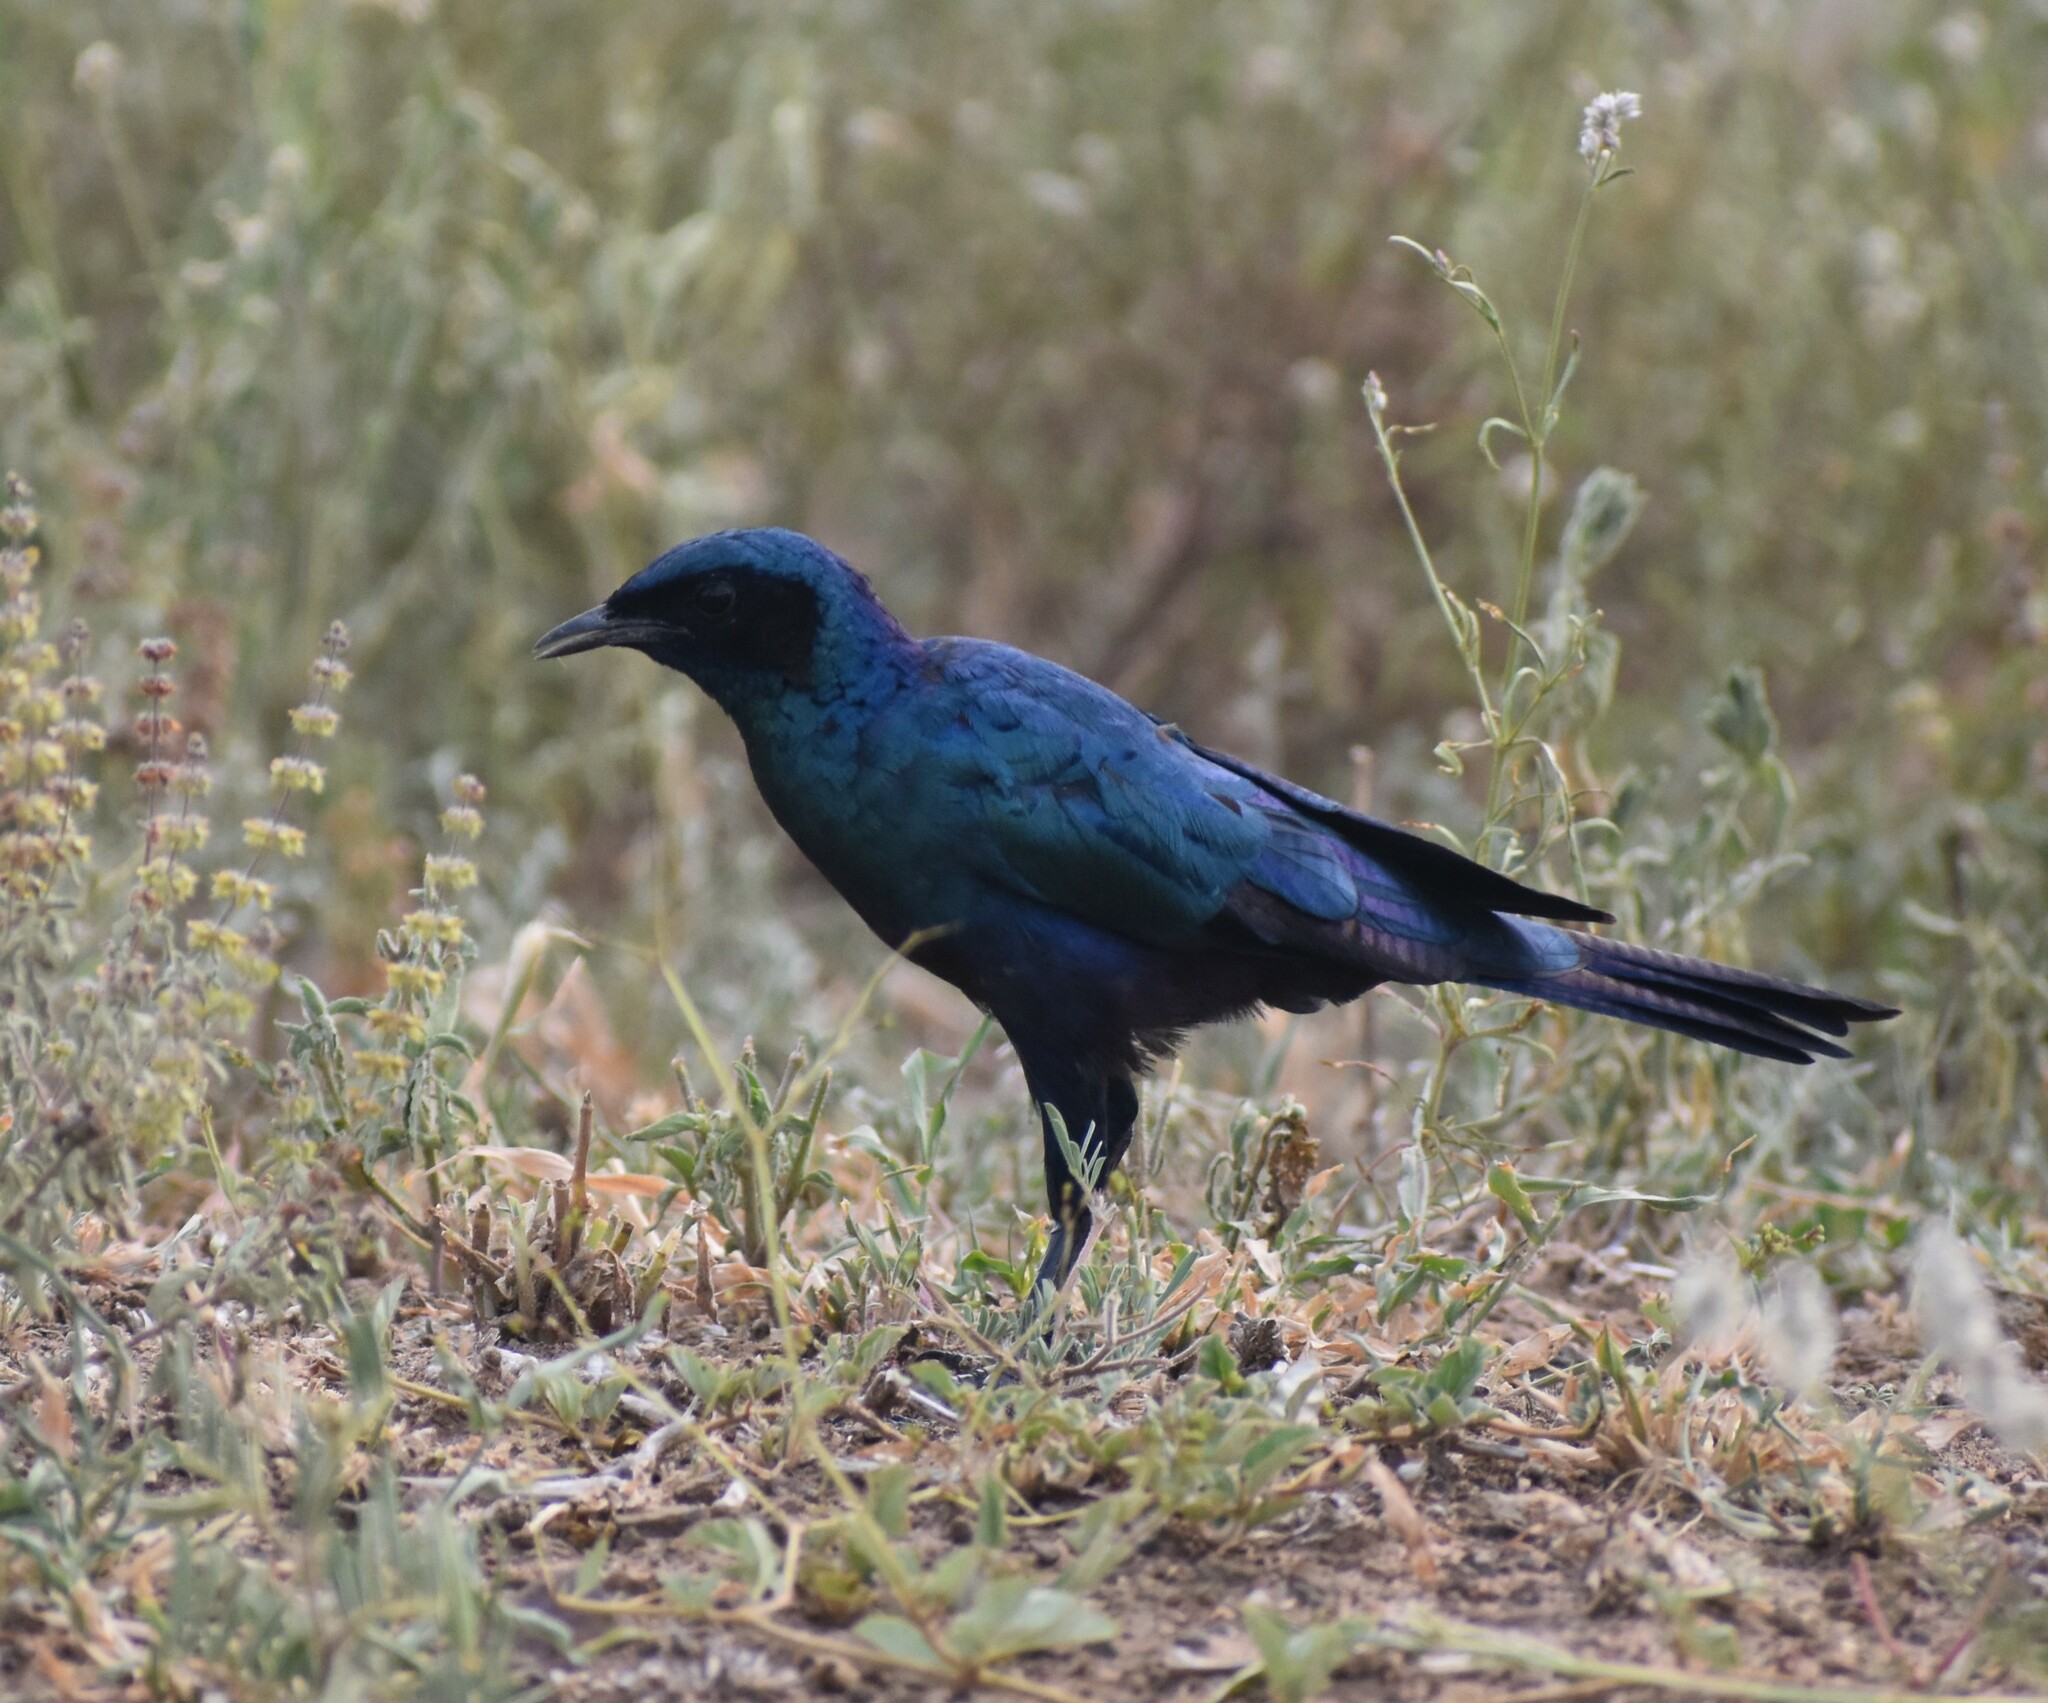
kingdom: Animalia
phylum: Chordata
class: Aves
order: Passeriformes
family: Sturnidae
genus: Lamprotornis
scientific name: Lamprotornis australis
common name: Burchell's starling
